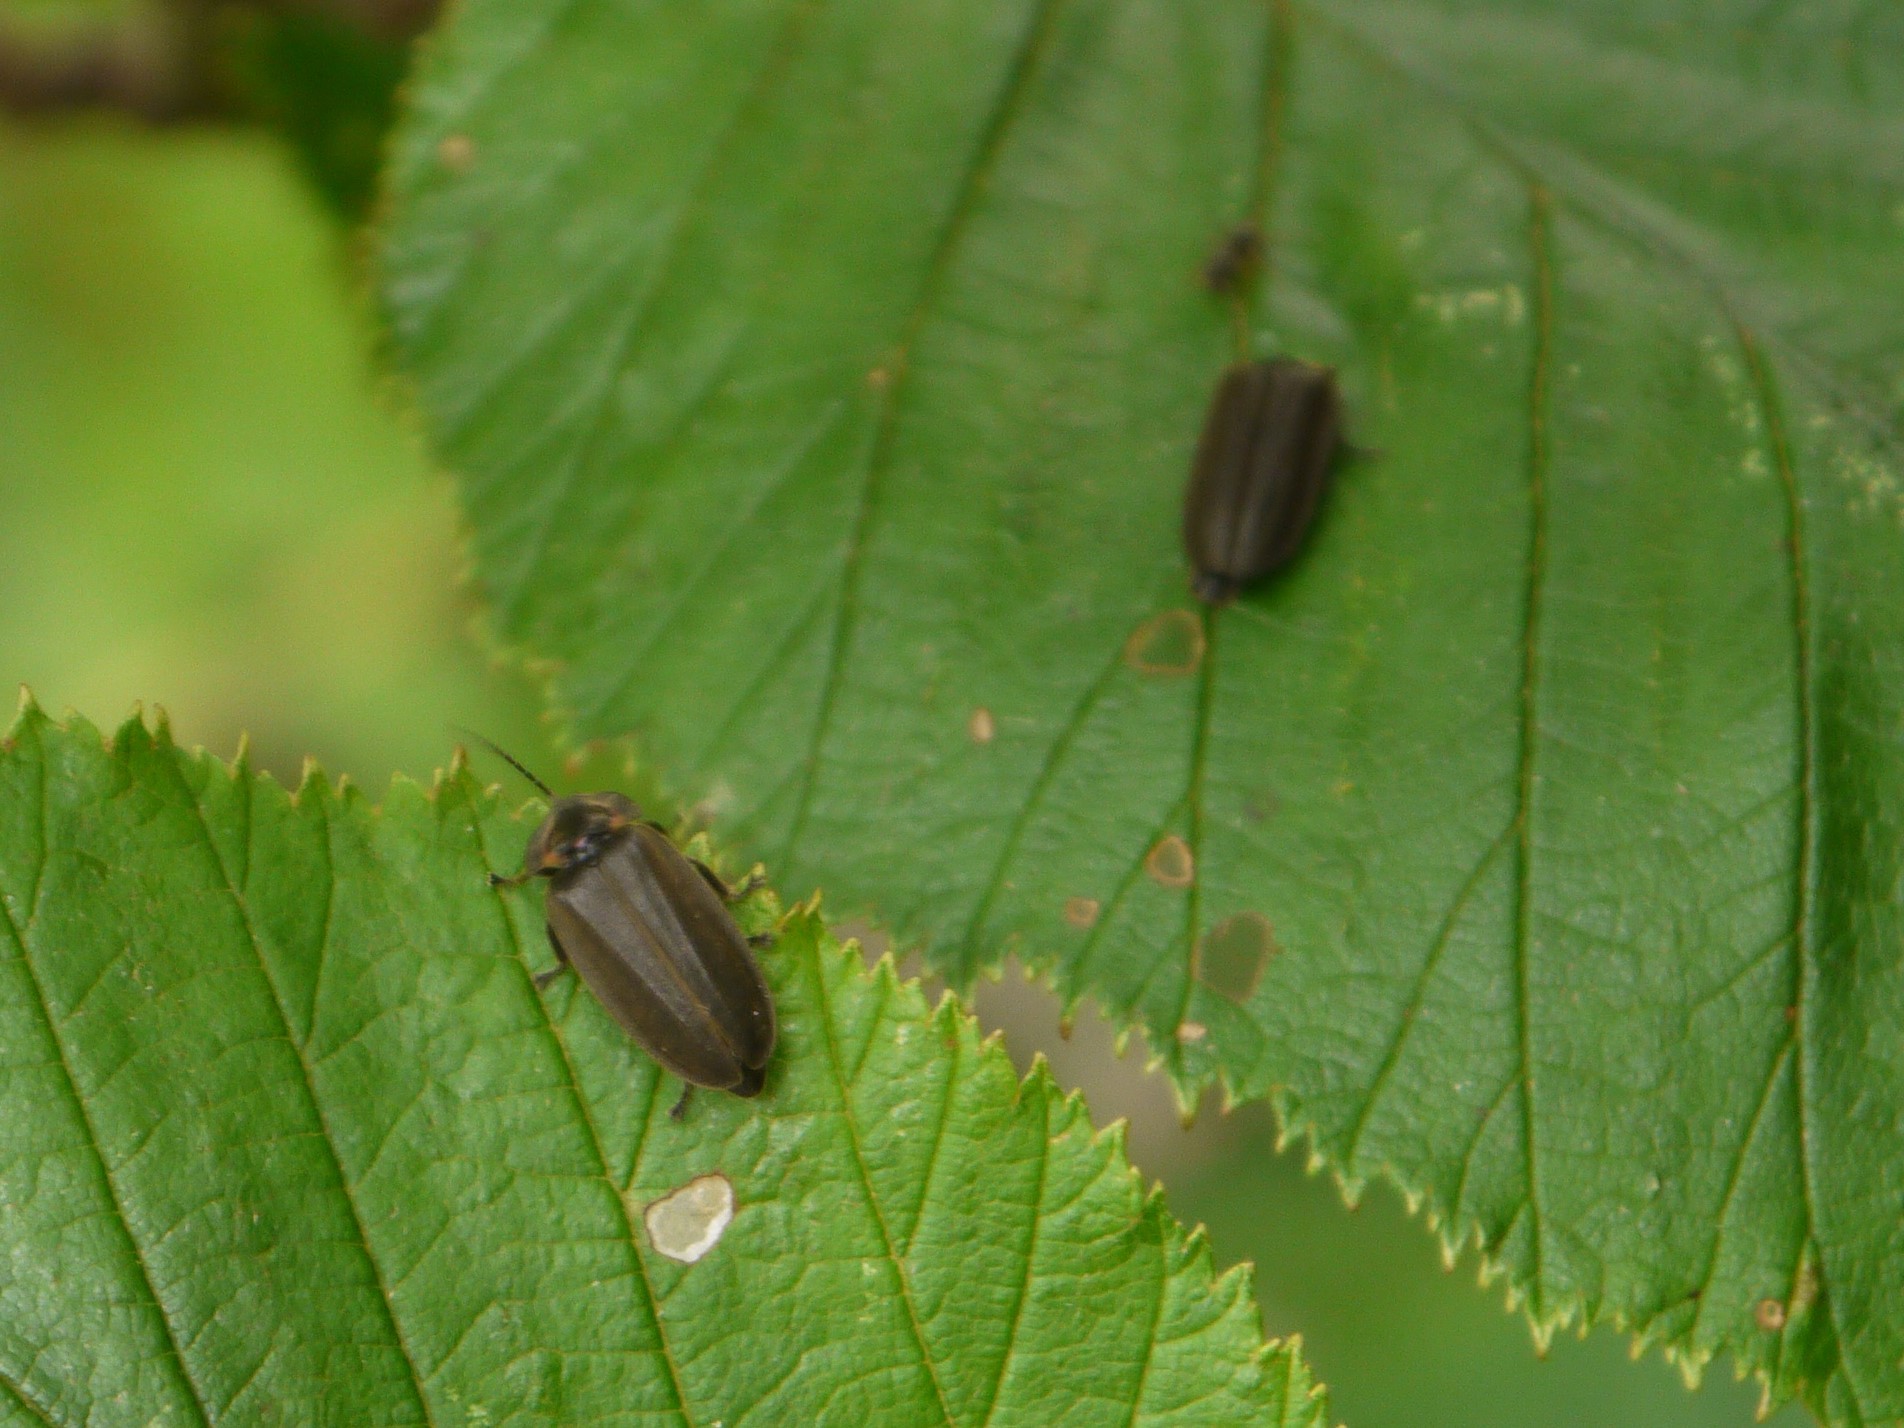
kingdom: Animalia
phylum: Arthropoda
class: Insecta
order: Coleoptera
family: Lampyridae
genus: Photinus
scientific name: Photinus corrusca
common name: Winter firefly
